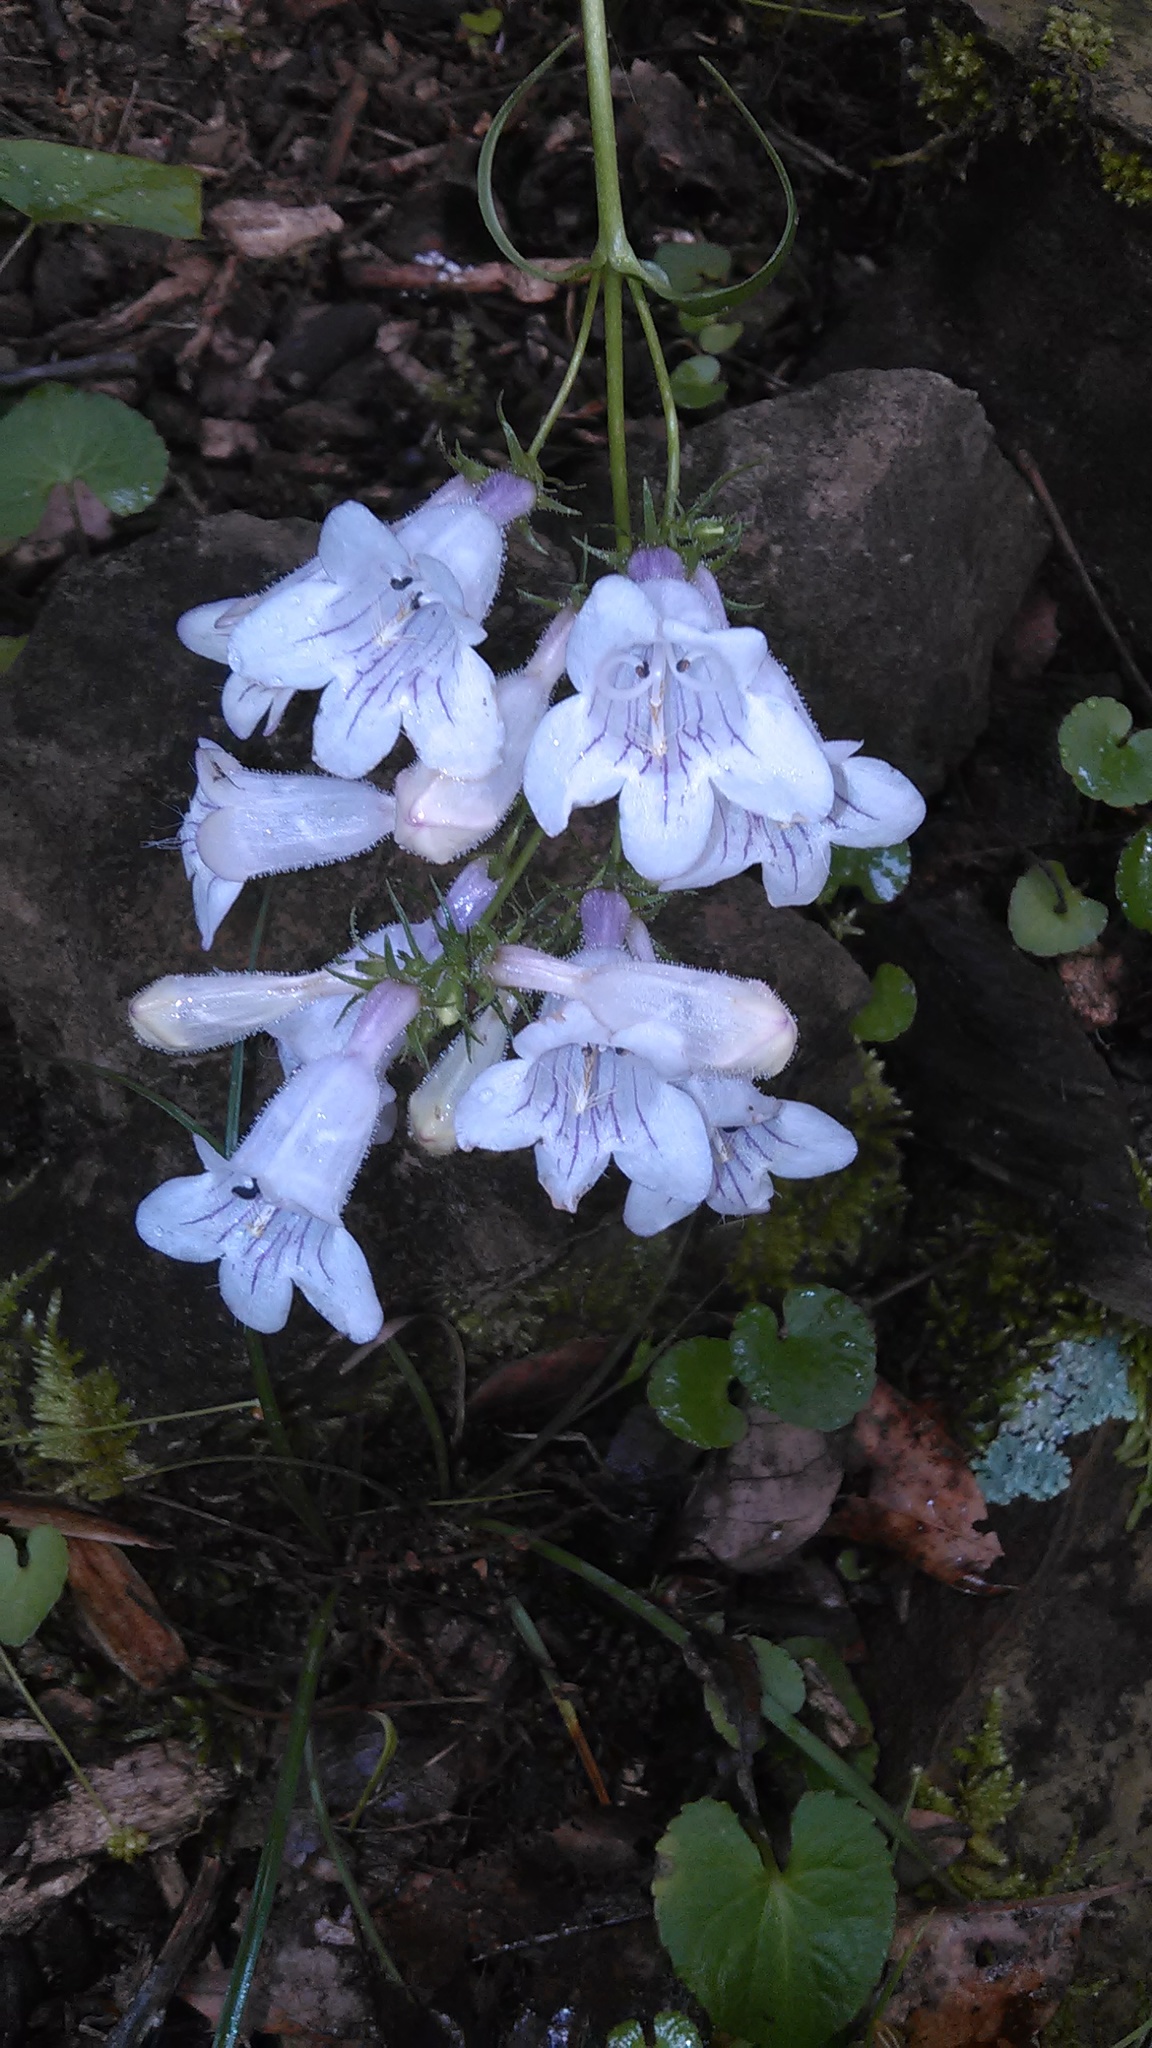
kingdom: Plantae
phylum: Tracheophyta
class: Magnoliopsida
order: Lamiales
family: Plantaginaceae
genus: Penstemon
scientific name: Penstemon digitalis
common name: Foxglove beardtongue
